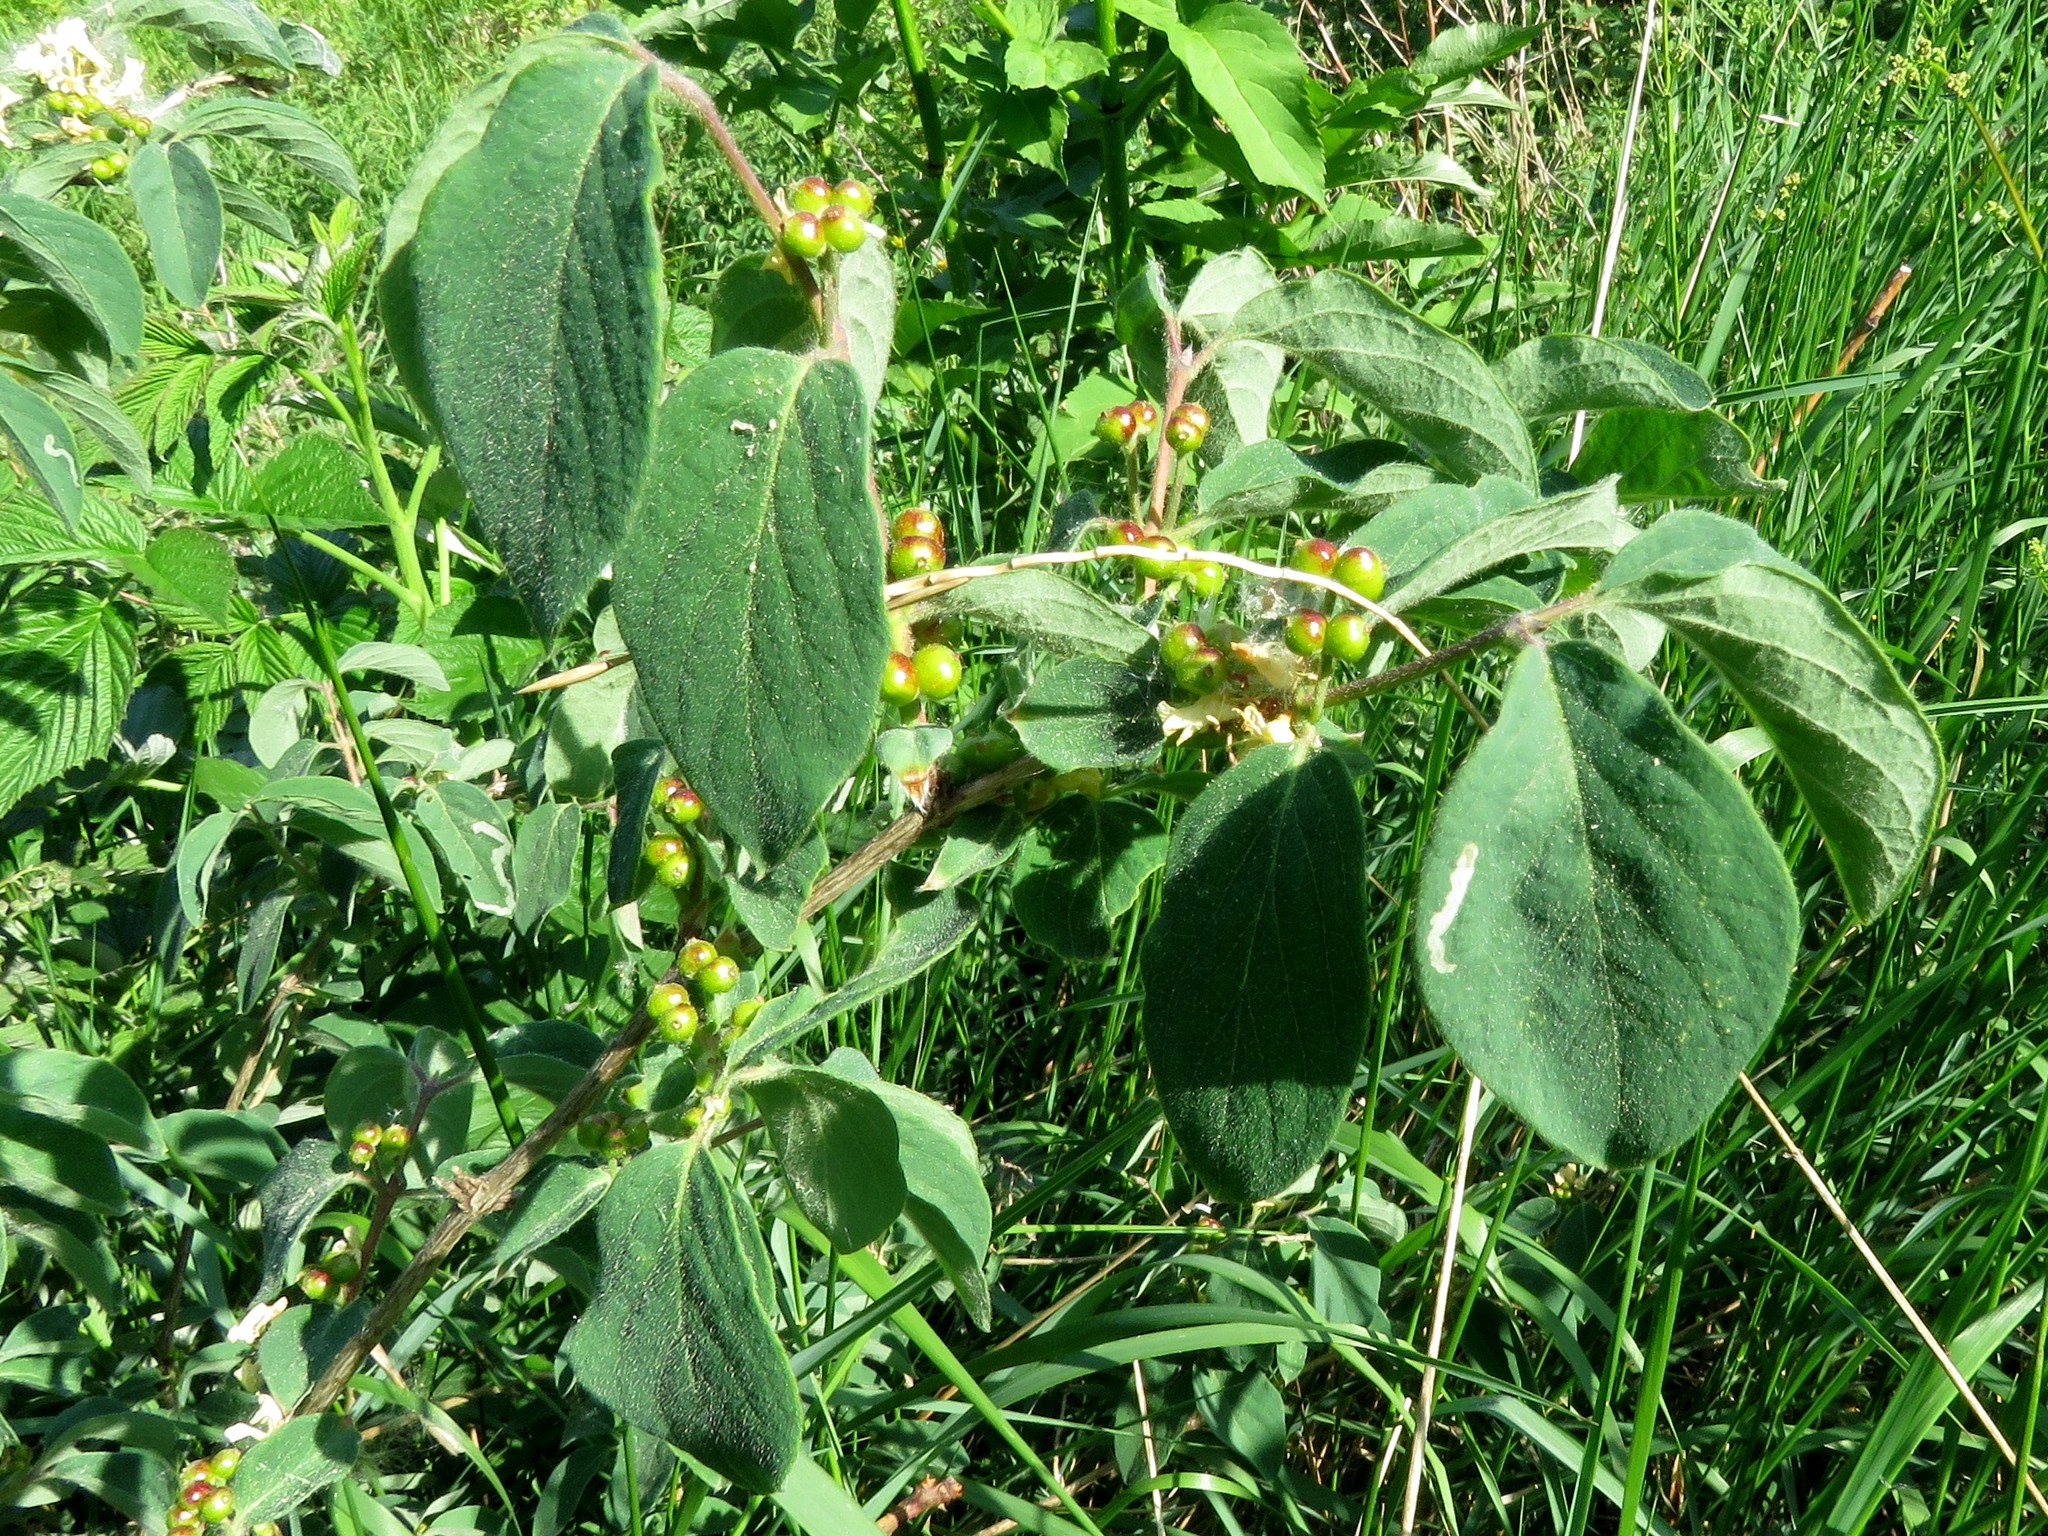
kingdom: Plantae
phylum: Tracheophyta
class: Magnoliopsida
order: Dipsacales
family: Caprifoliaceae
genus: Lonicera
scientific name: Lonicera xylosteum
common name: Fly honeysuckle
